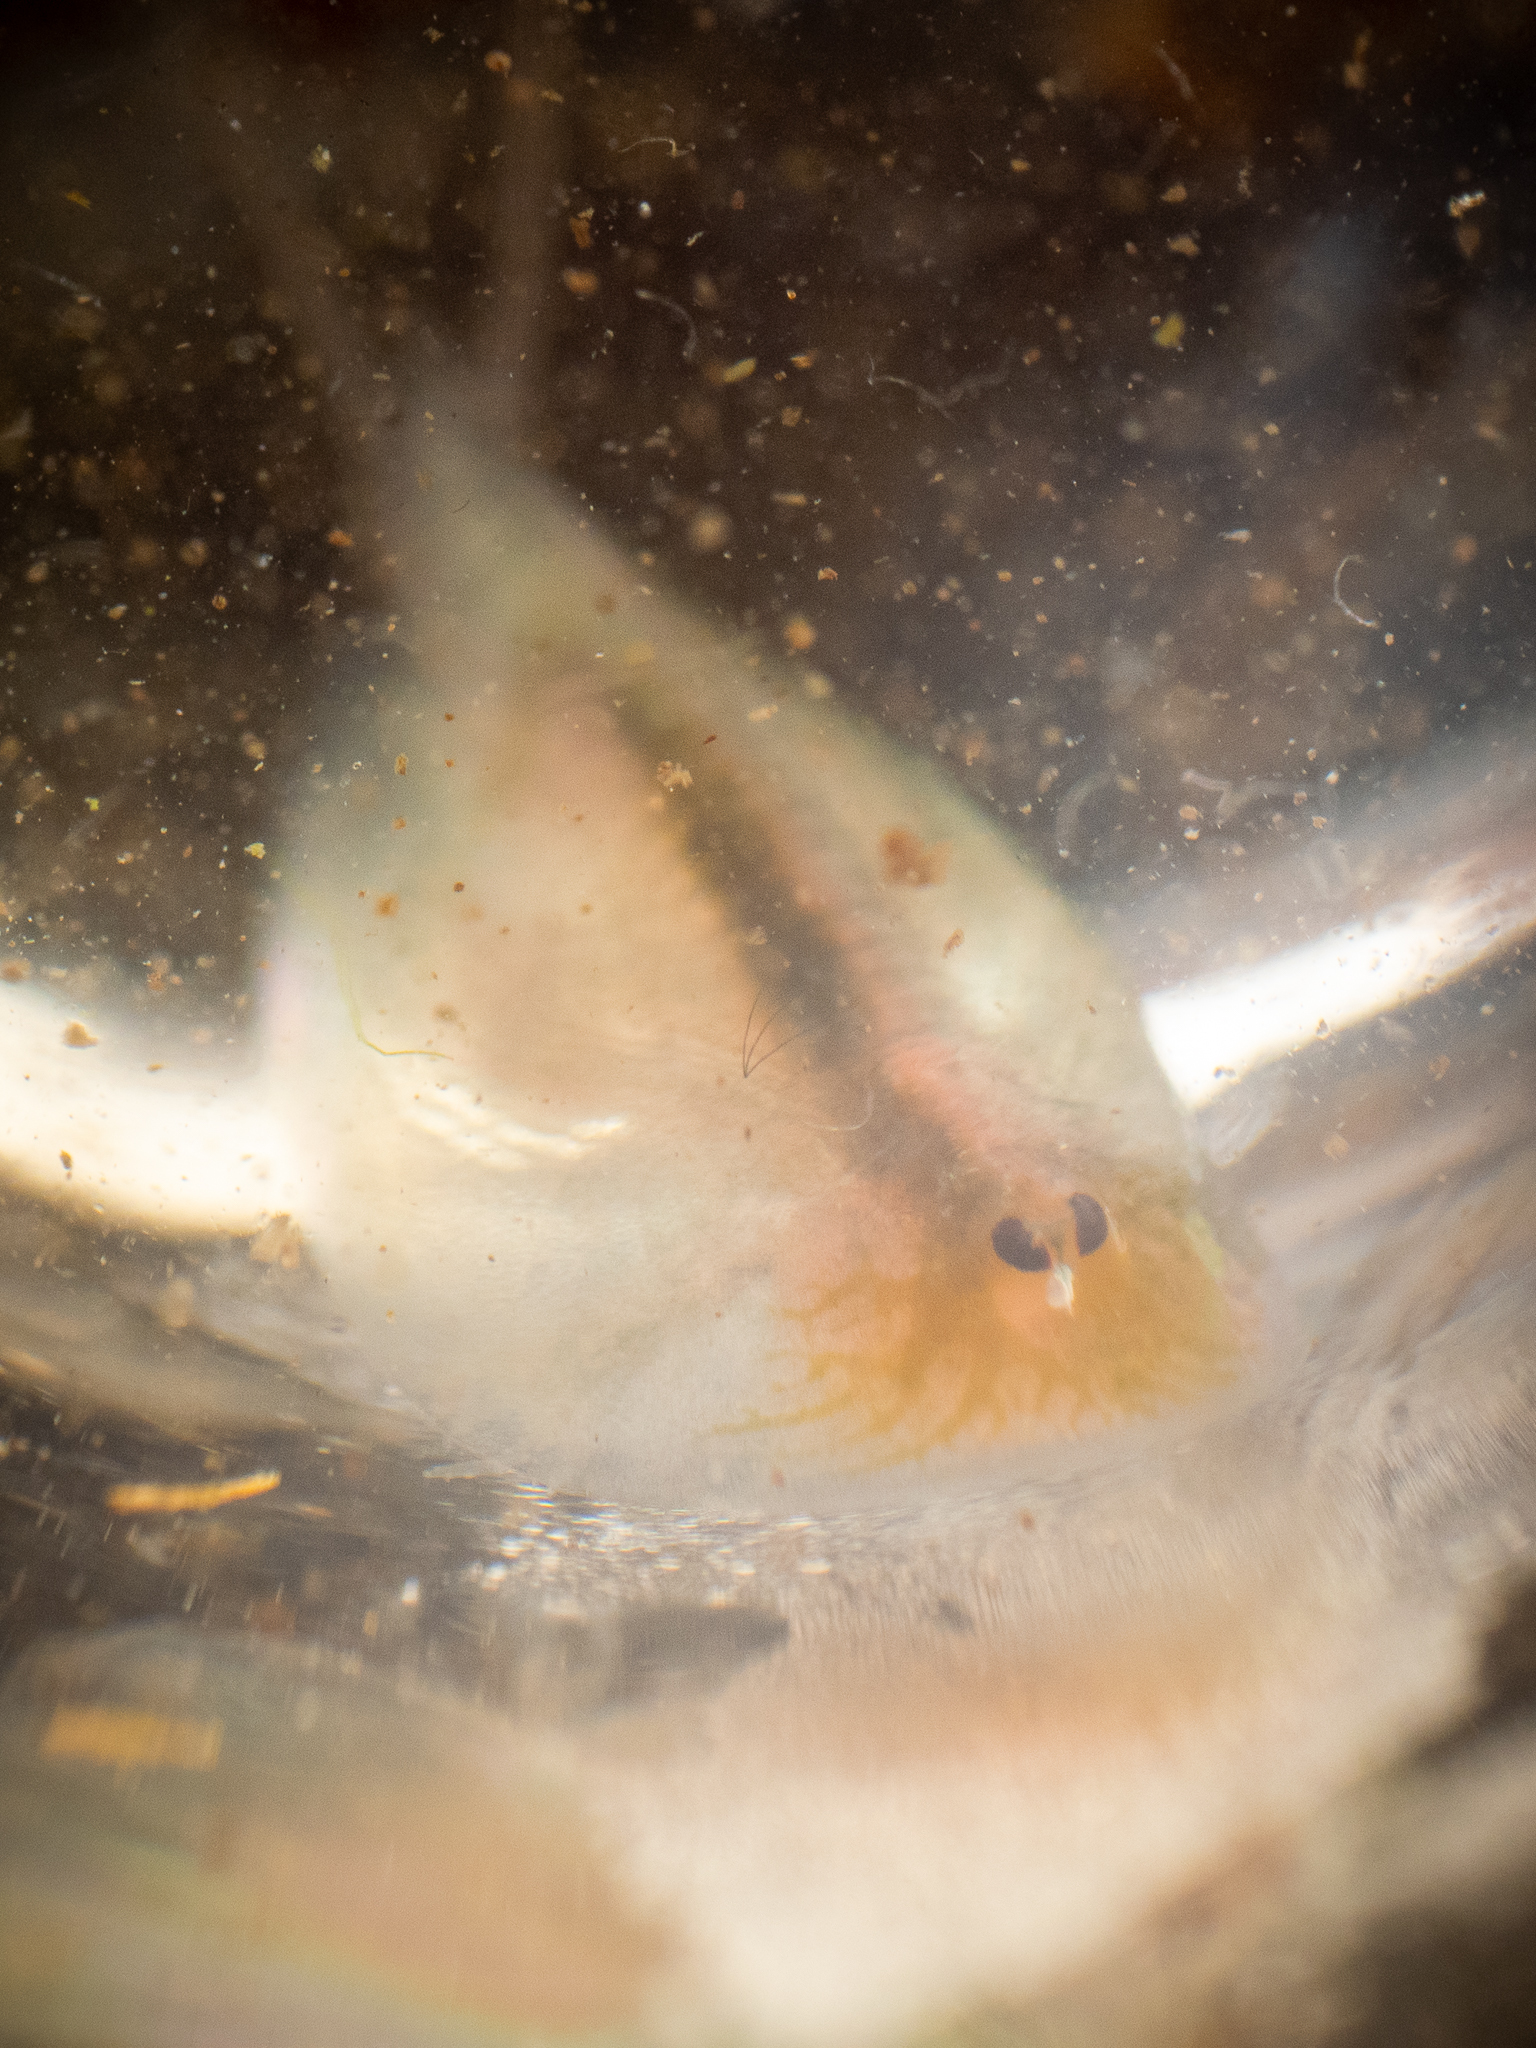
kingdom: Animalia
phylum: Arthropoda
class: Branchiopoda
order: Notostraca
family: Triopsidae
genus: Lepidurus
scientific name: Lepidurus apus
